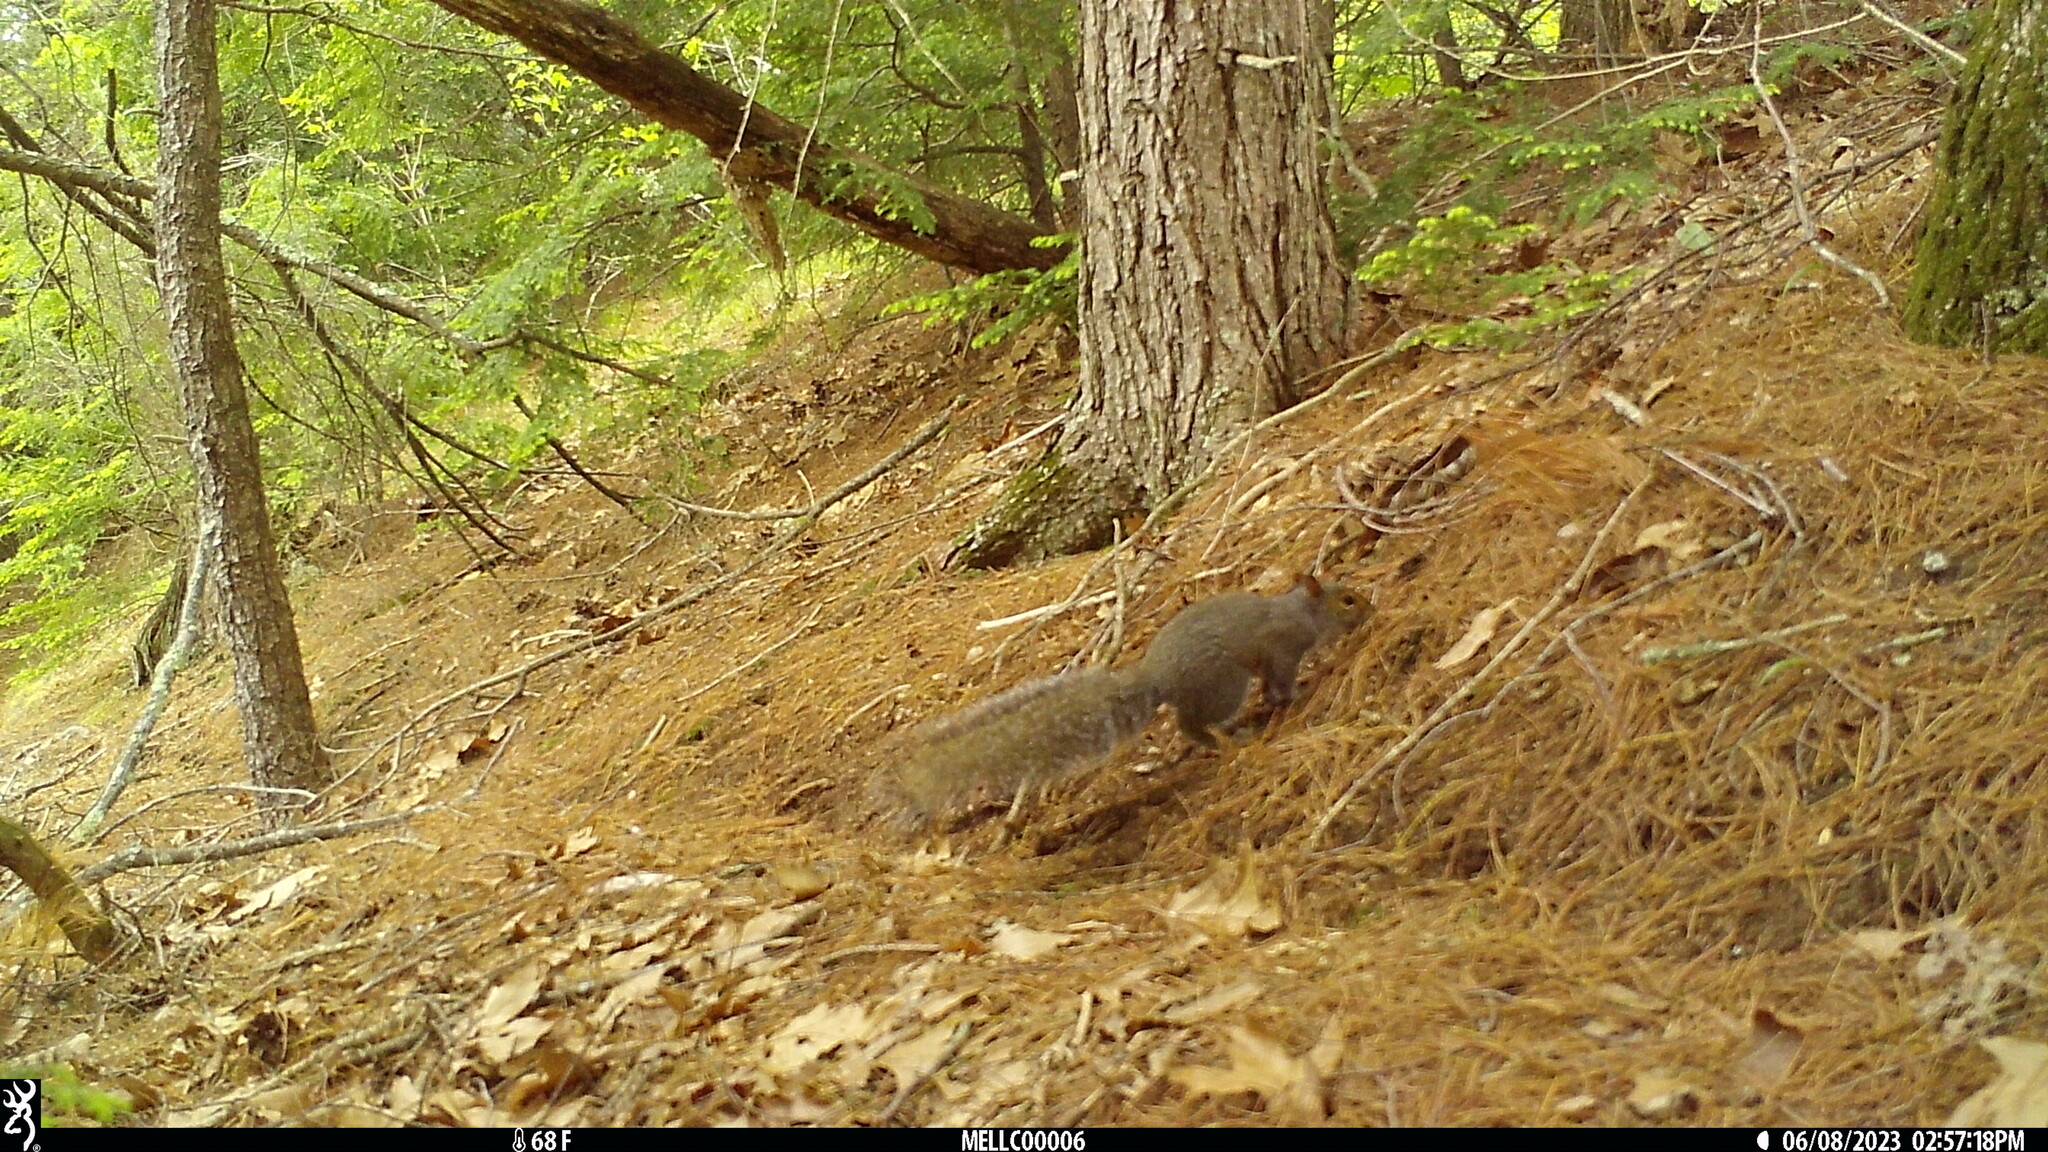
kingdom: Animalia
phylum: Chordata
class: Mammalia
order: Rodentia
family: Sciuridae
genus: Sciurus
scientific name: Sciurus carolinensis
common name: Eastern gray squirrel
